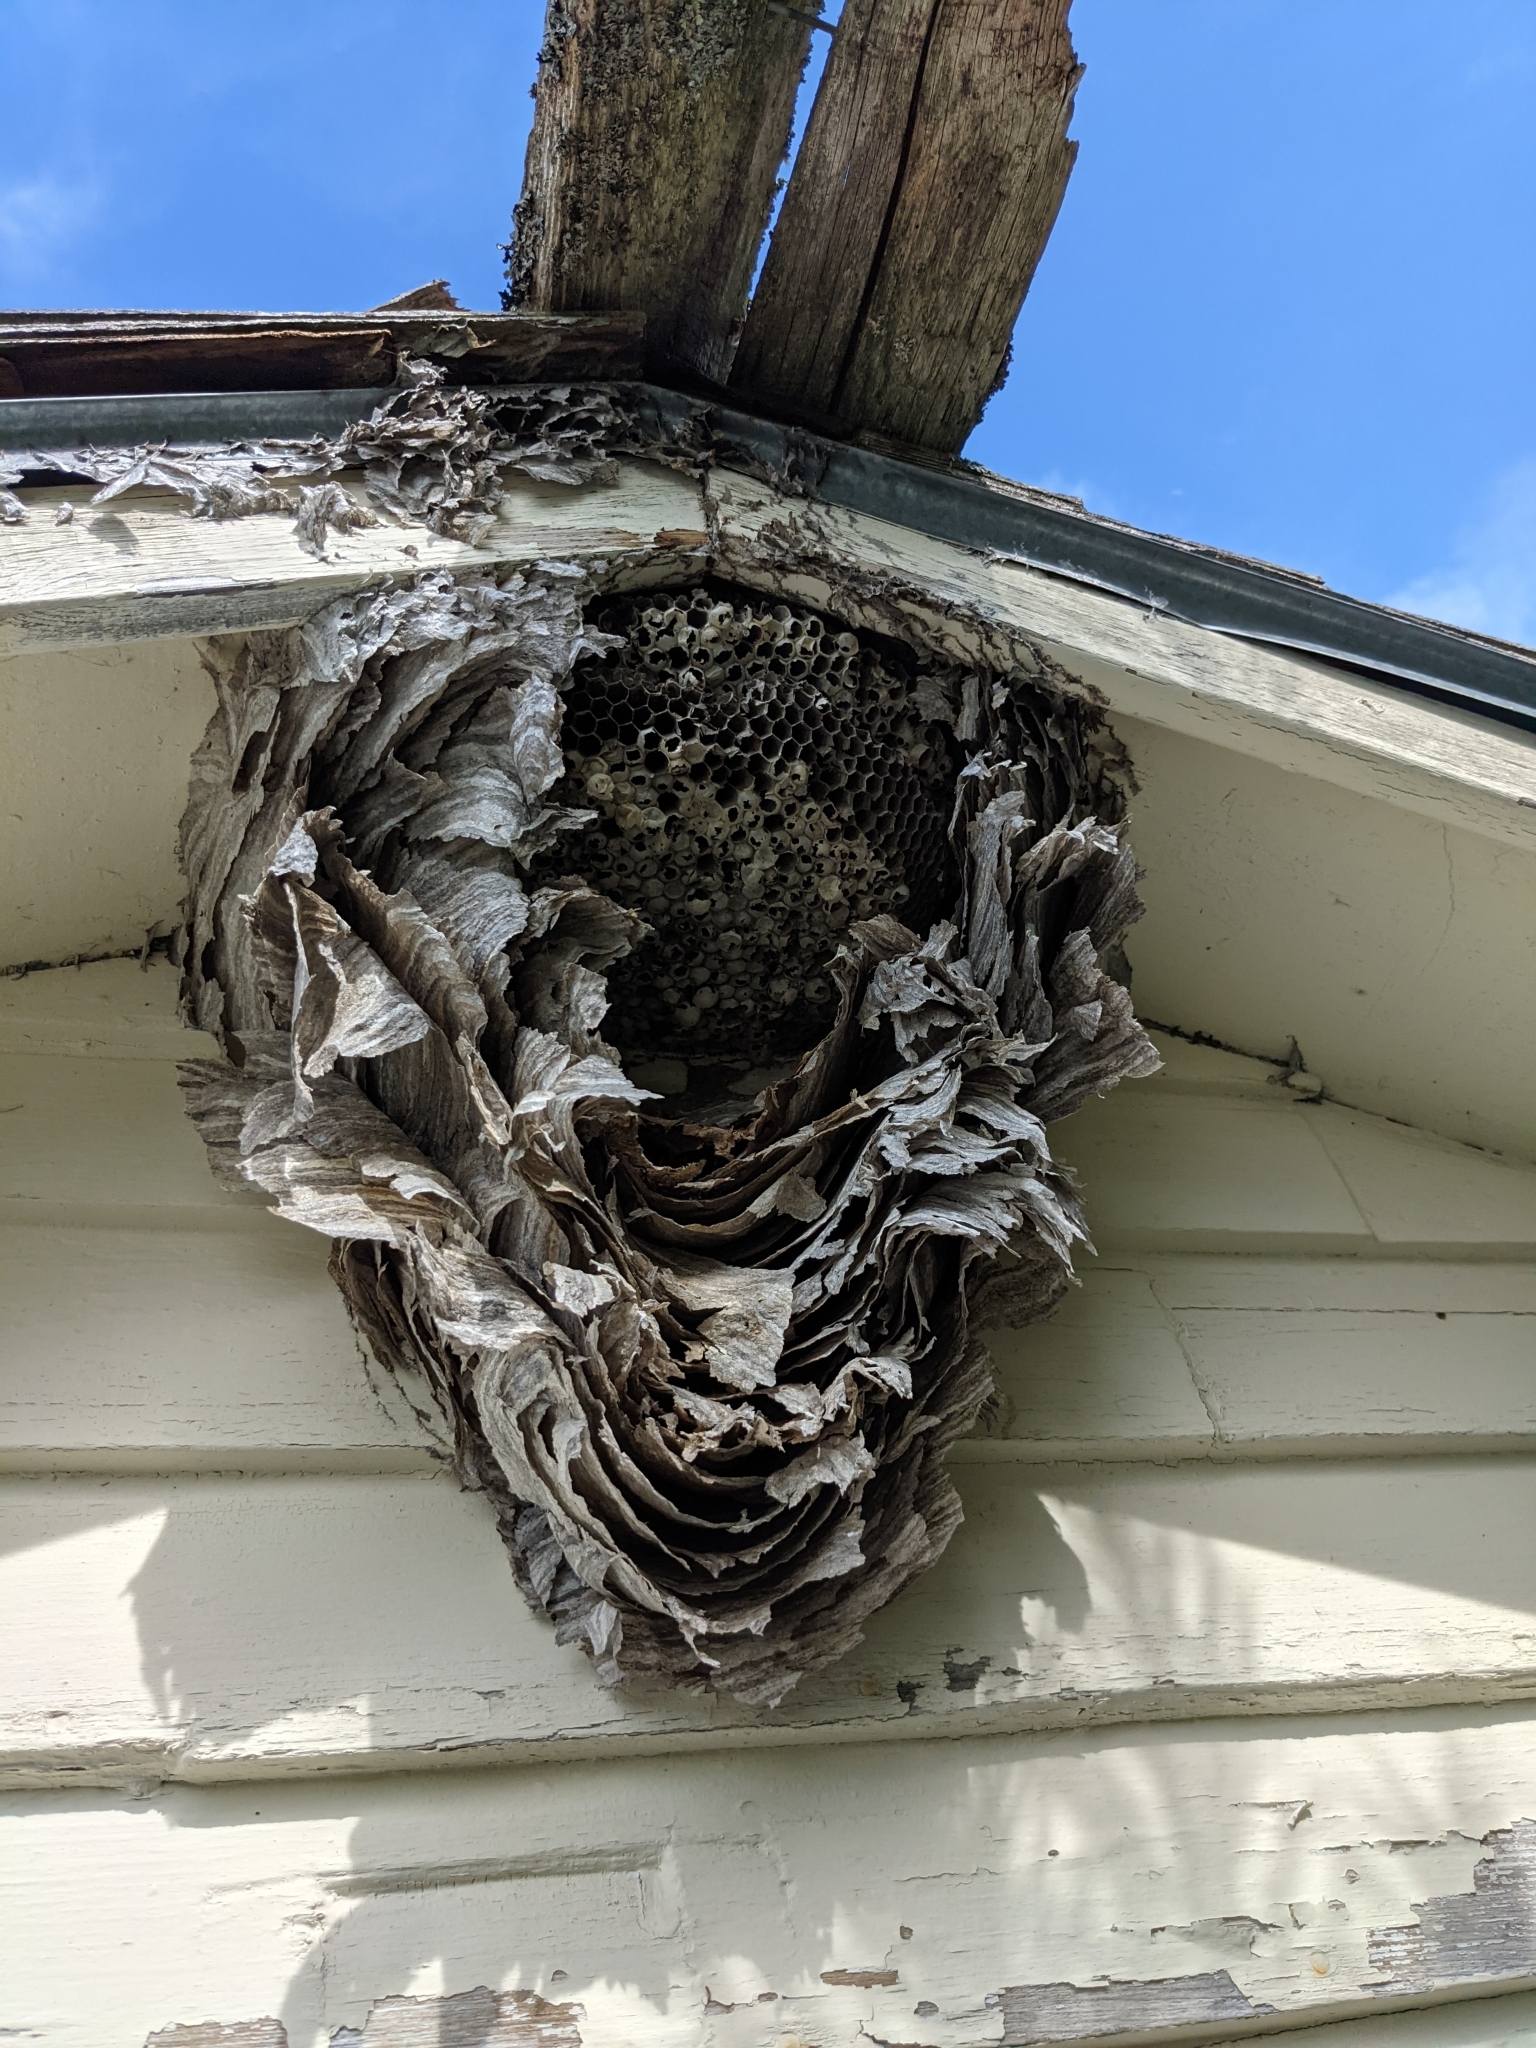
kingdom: Animalia
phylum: Arthropoda
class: Insecta
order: Hymenoptera
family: Vespidae
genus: Dolichovespula
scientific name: Dolichovespula
